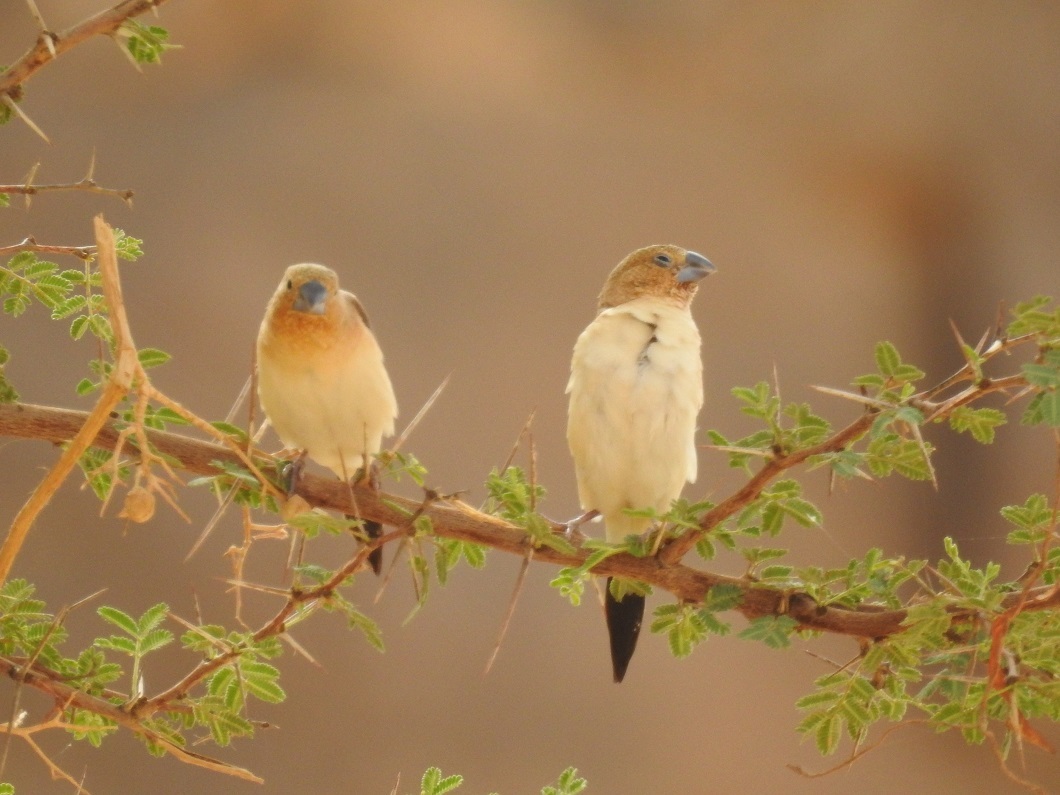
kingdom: Animalia
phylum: Chordata
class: Aves
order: Passeriformes
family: Estrildidae
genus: Euodice
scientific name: Euodice cantans
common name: African silverbill
